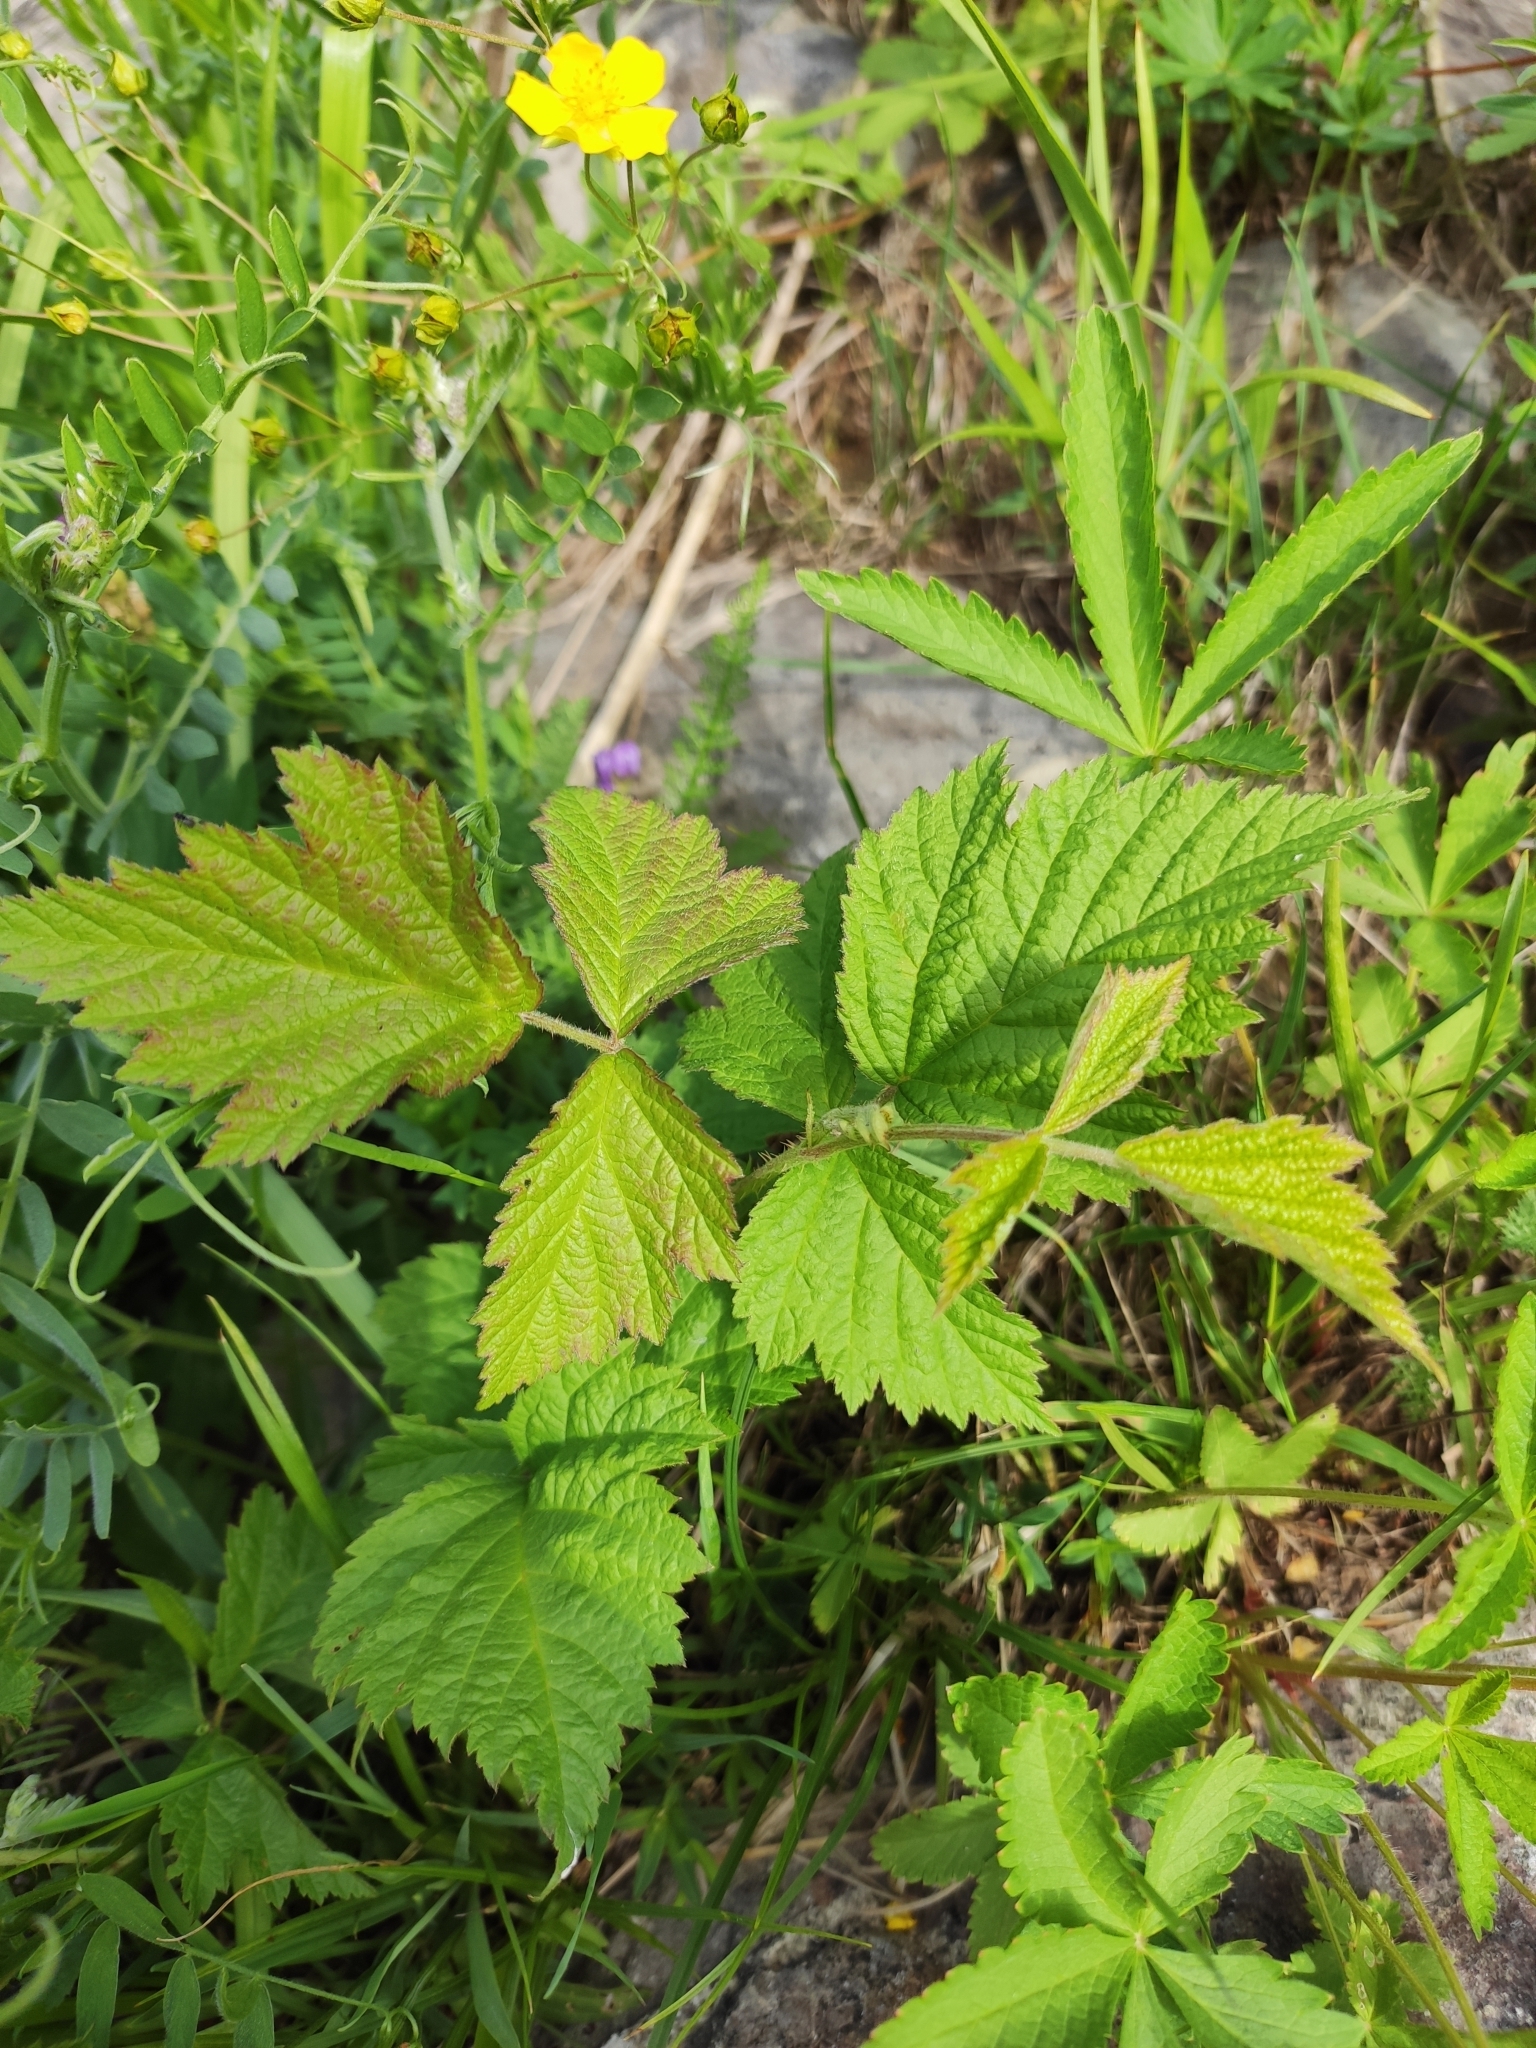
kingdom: Plantae
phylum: Tracheophyta
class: Magnoliopsida
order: Rosales
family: Rosaceae
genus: Rubus
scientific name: Rubus caesius
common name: Dewberry
